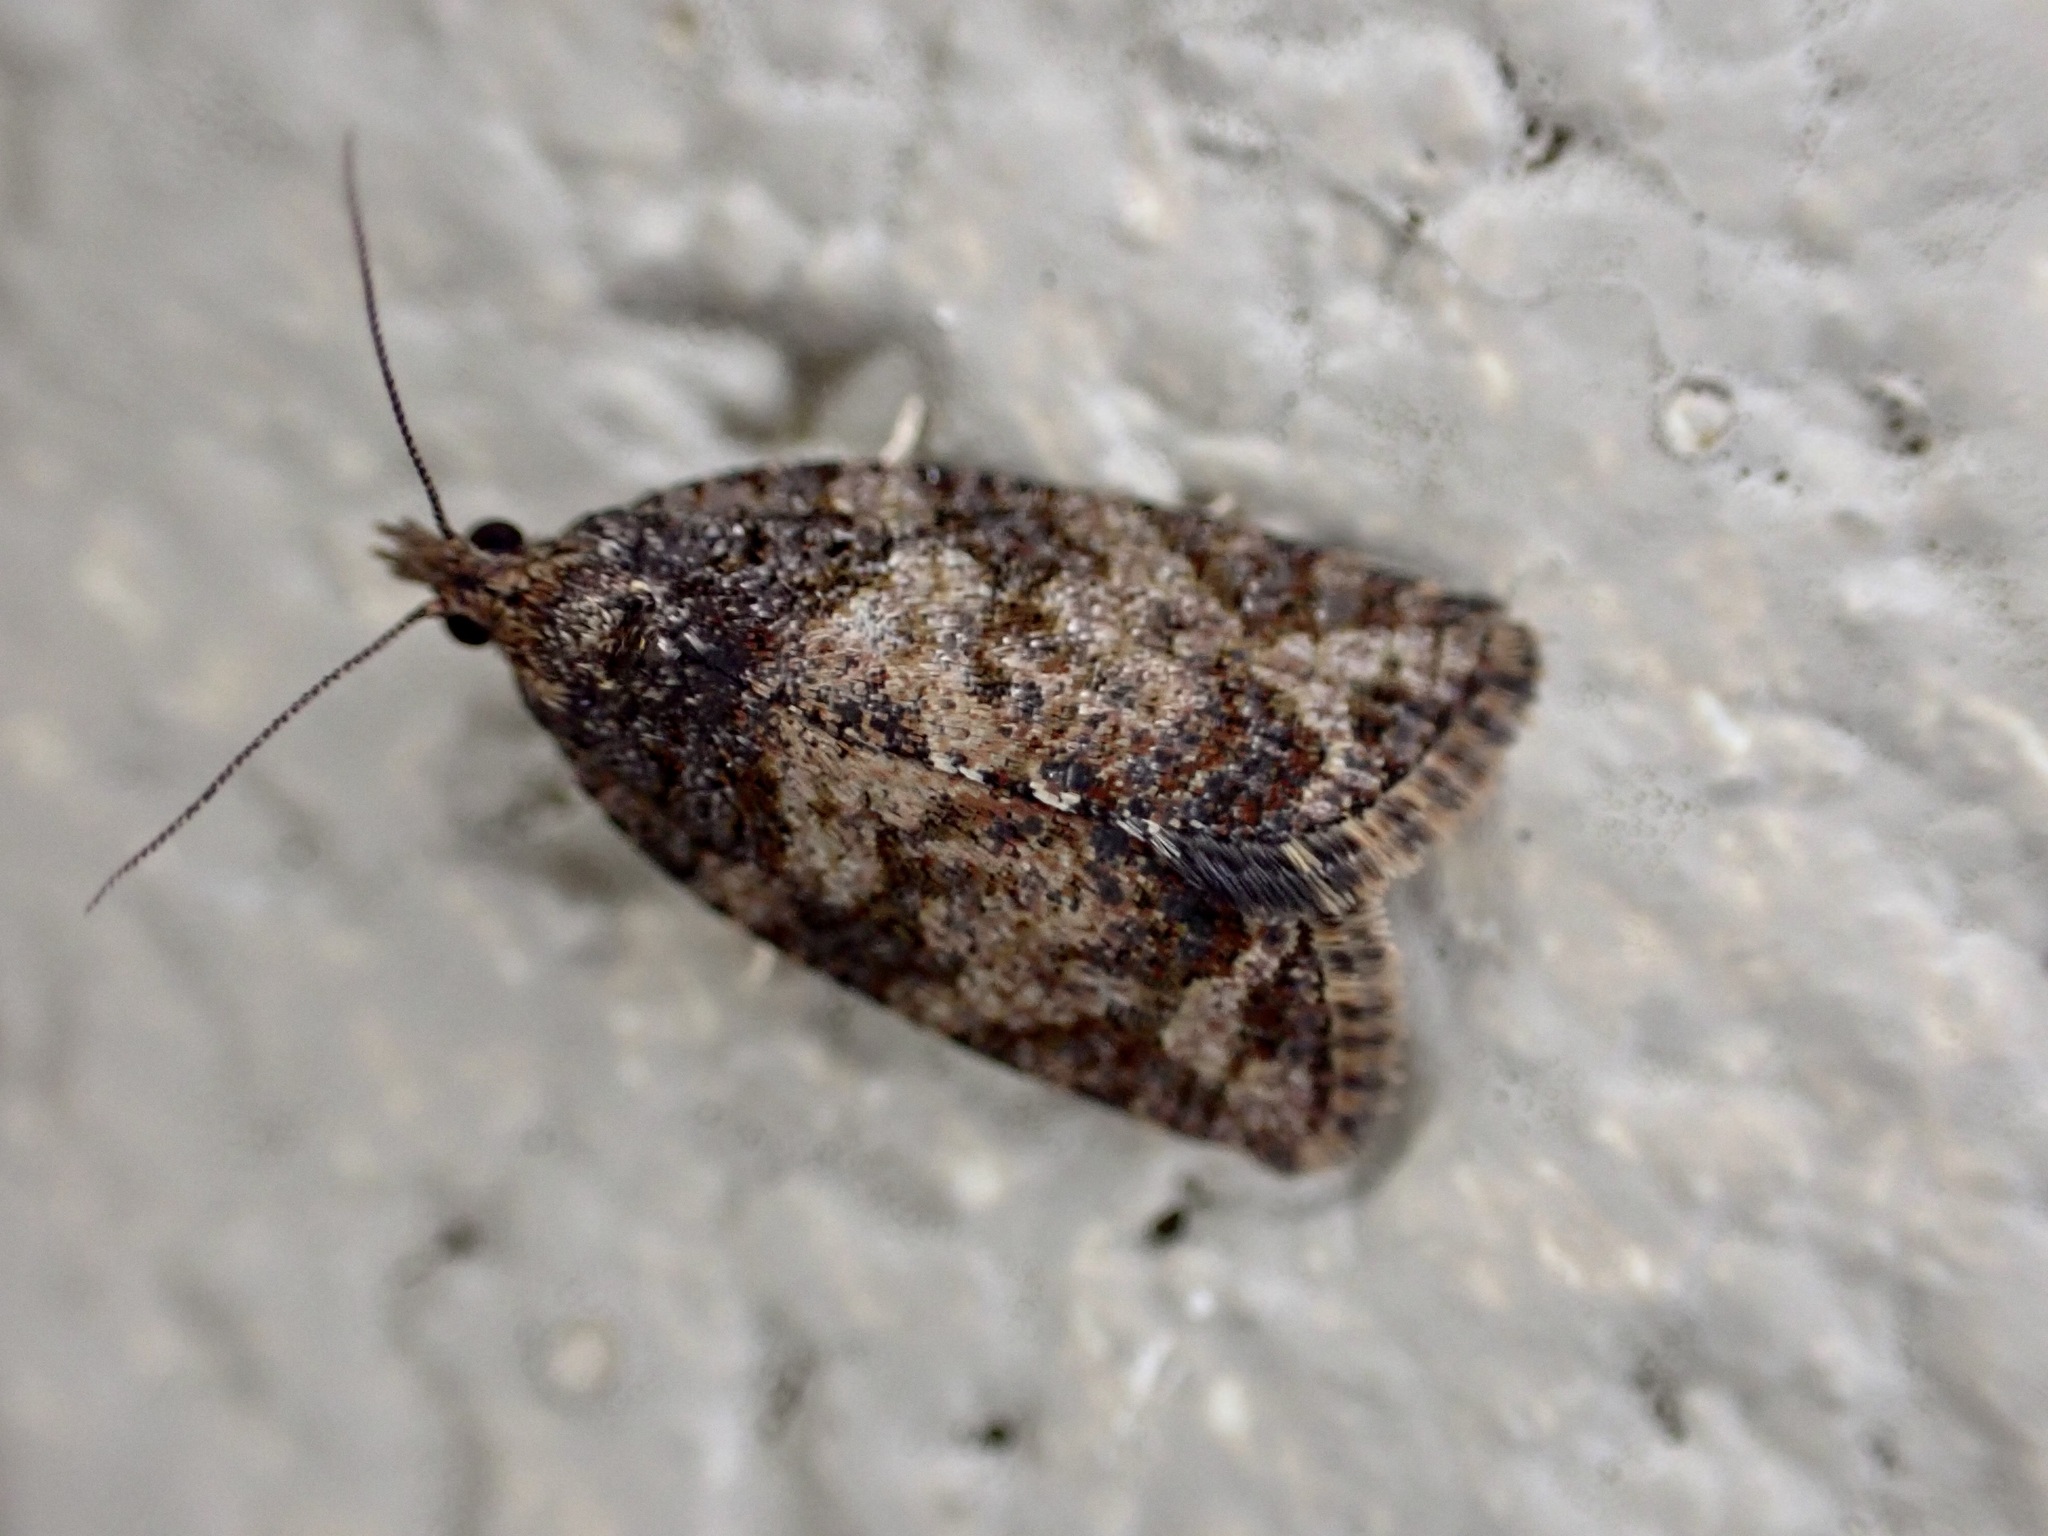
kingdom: Animalia
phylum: Arthropoda
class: Insecta
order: Lepidoptera
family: Tortricidae
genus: Capua
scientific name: Capua intractana
